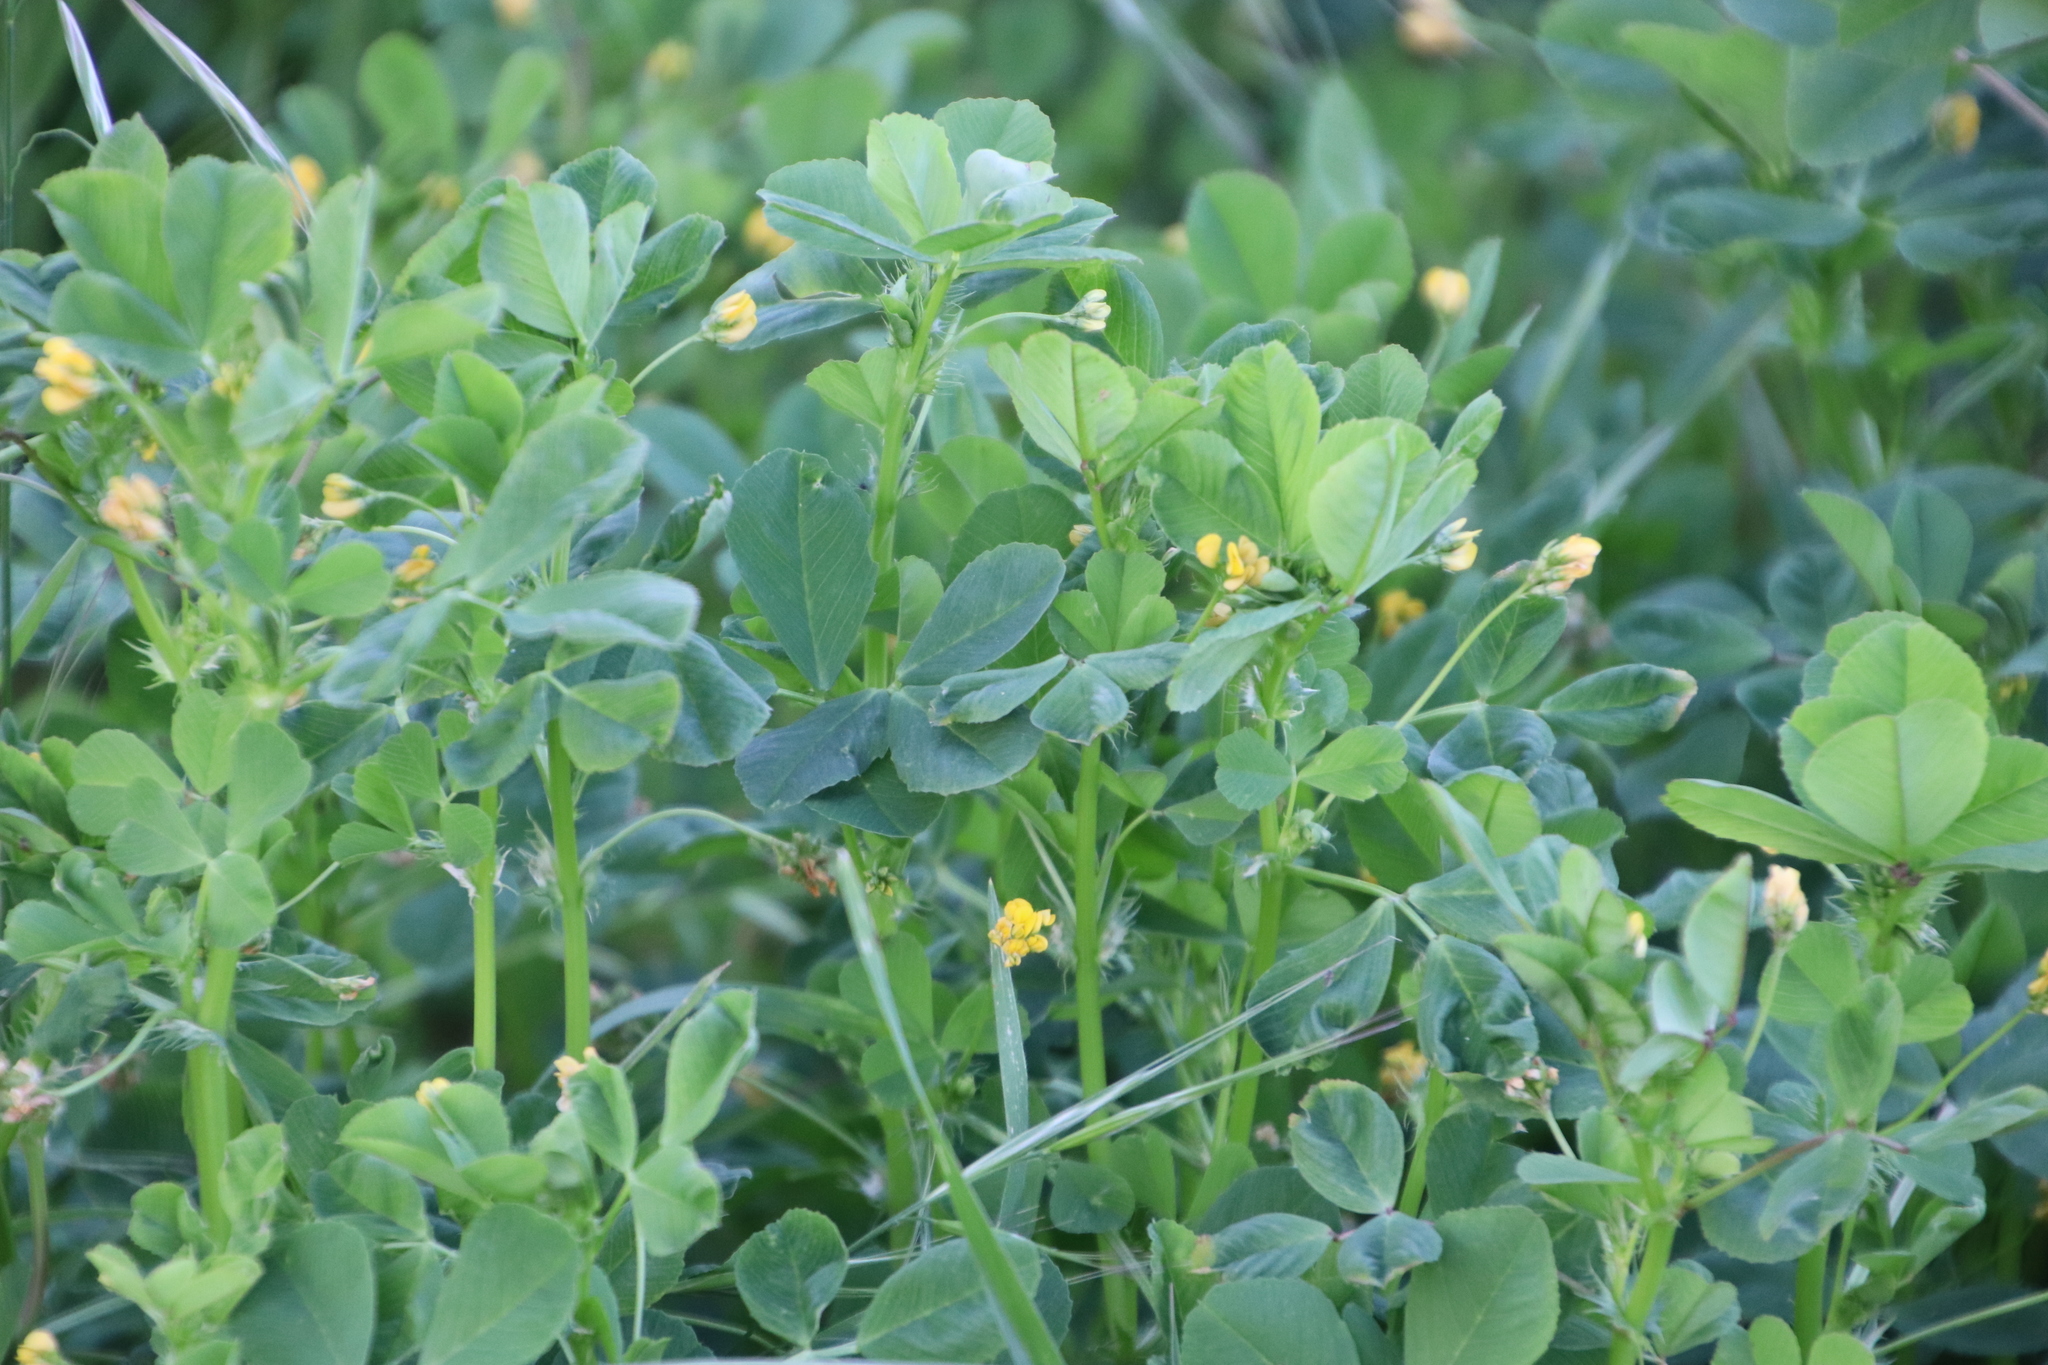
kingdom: Plantae
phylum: Tracheophyta
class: Magnoliopsida
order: Fabales
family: Fabaceae
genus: Medicago
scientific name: Medicago polymorpha
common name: Burclover
